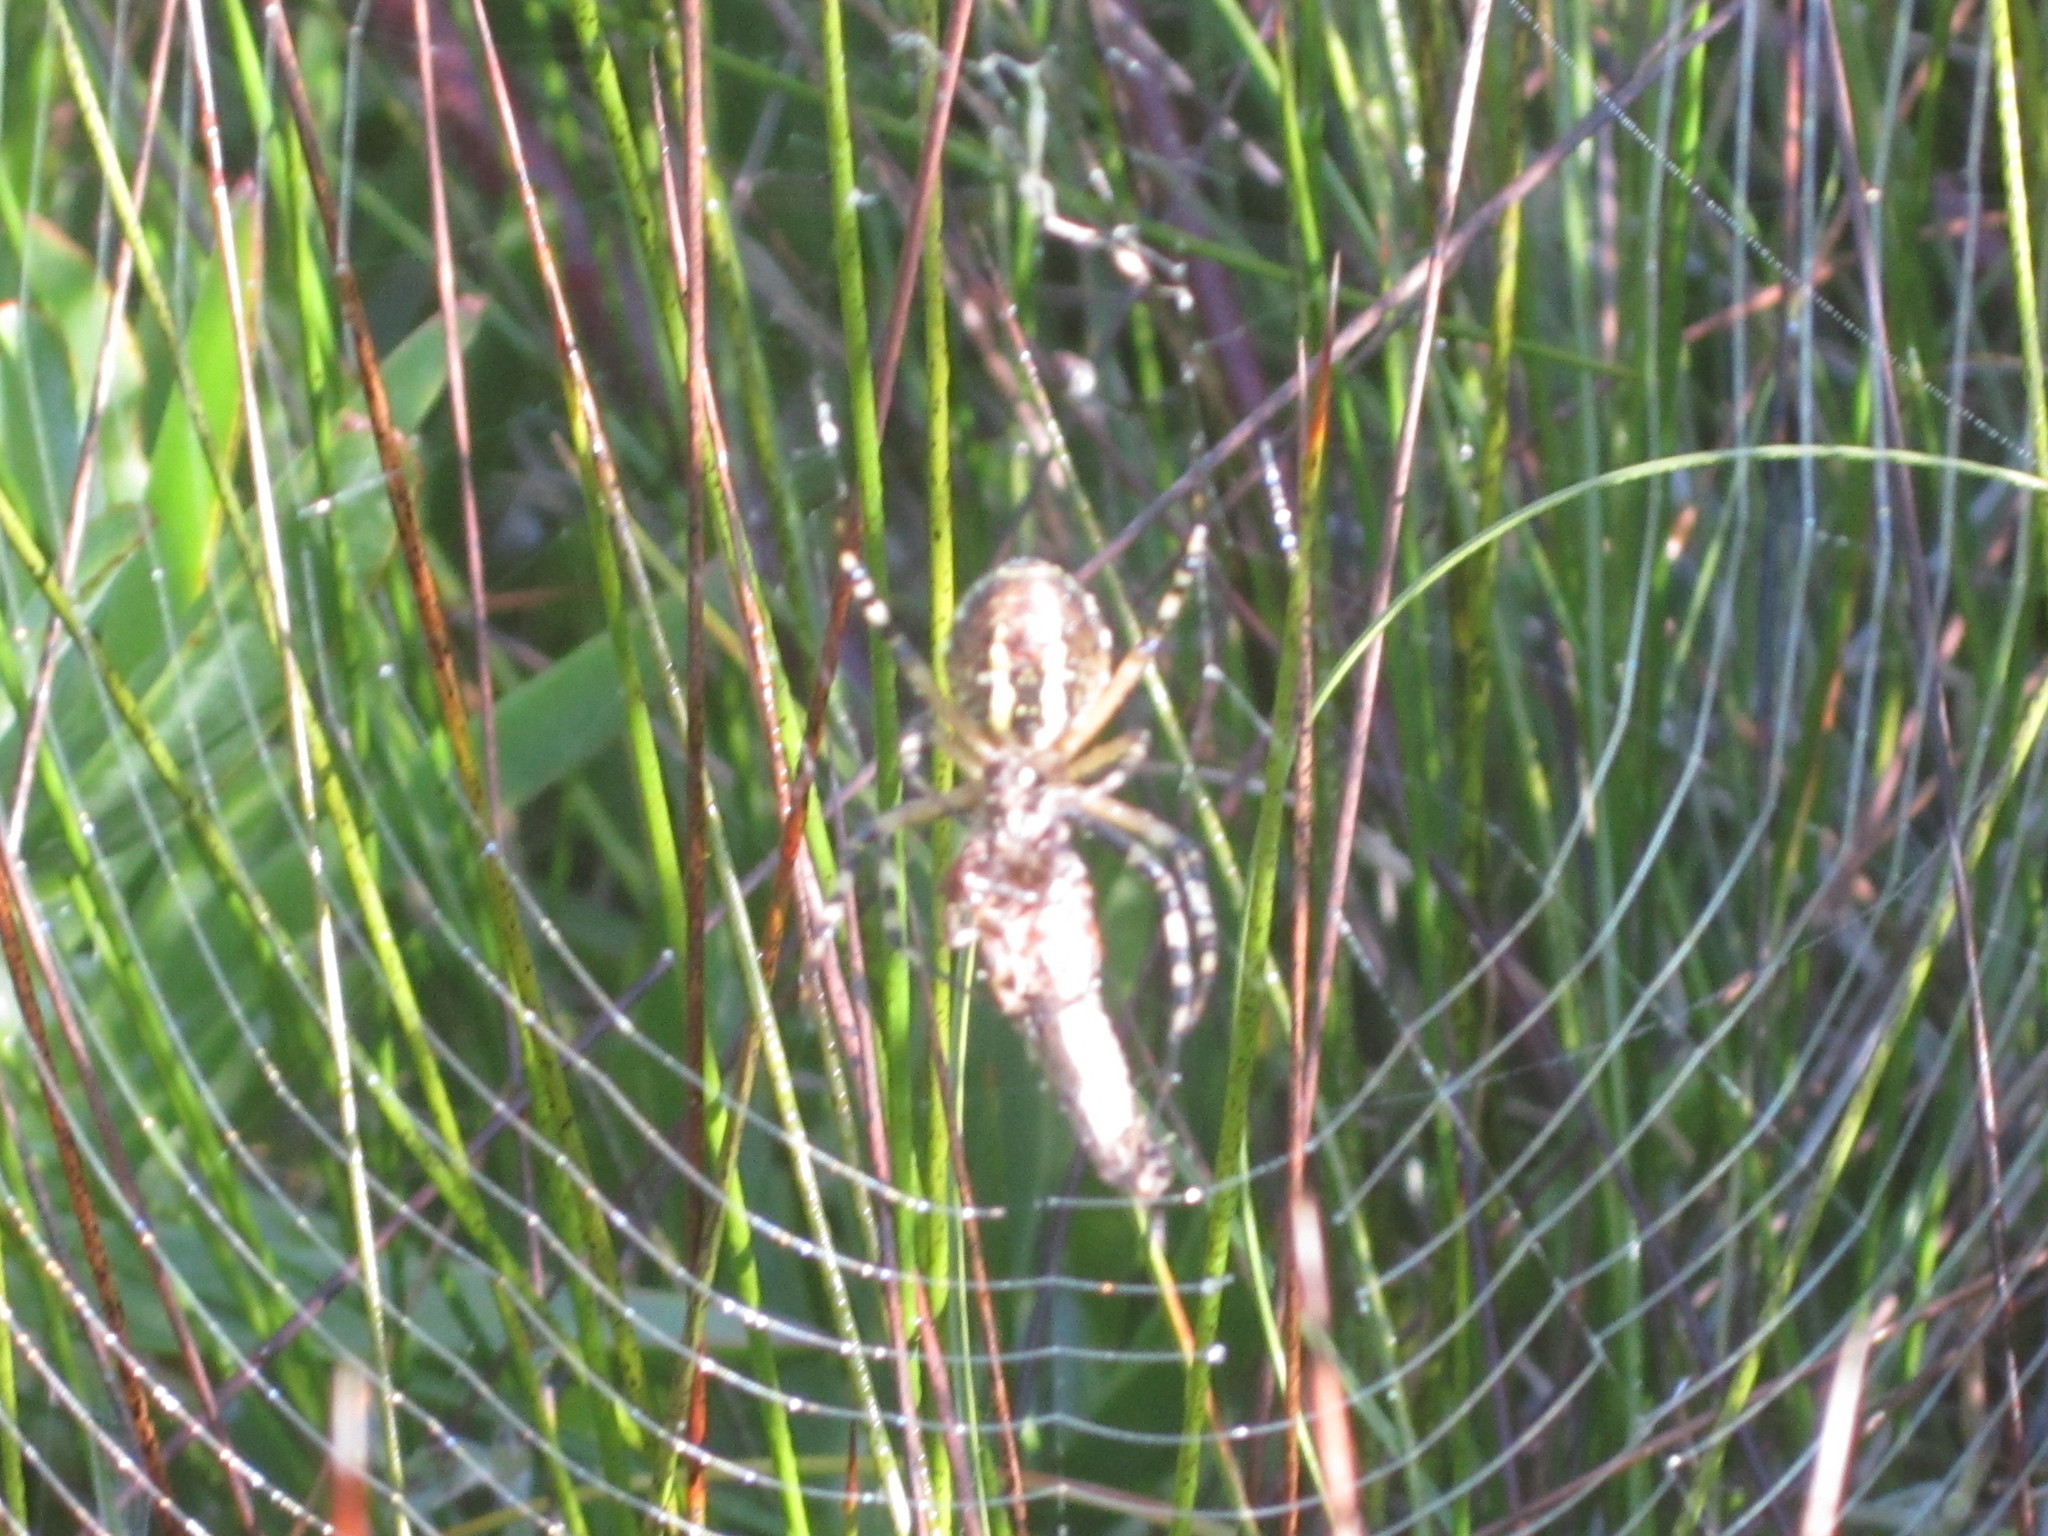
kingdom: Animalia
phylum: Arthropoda
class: Arachnida
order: Araneae
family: Araneidae
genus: Argiope
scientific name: Argiope bruennichi
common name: Wasp spider
